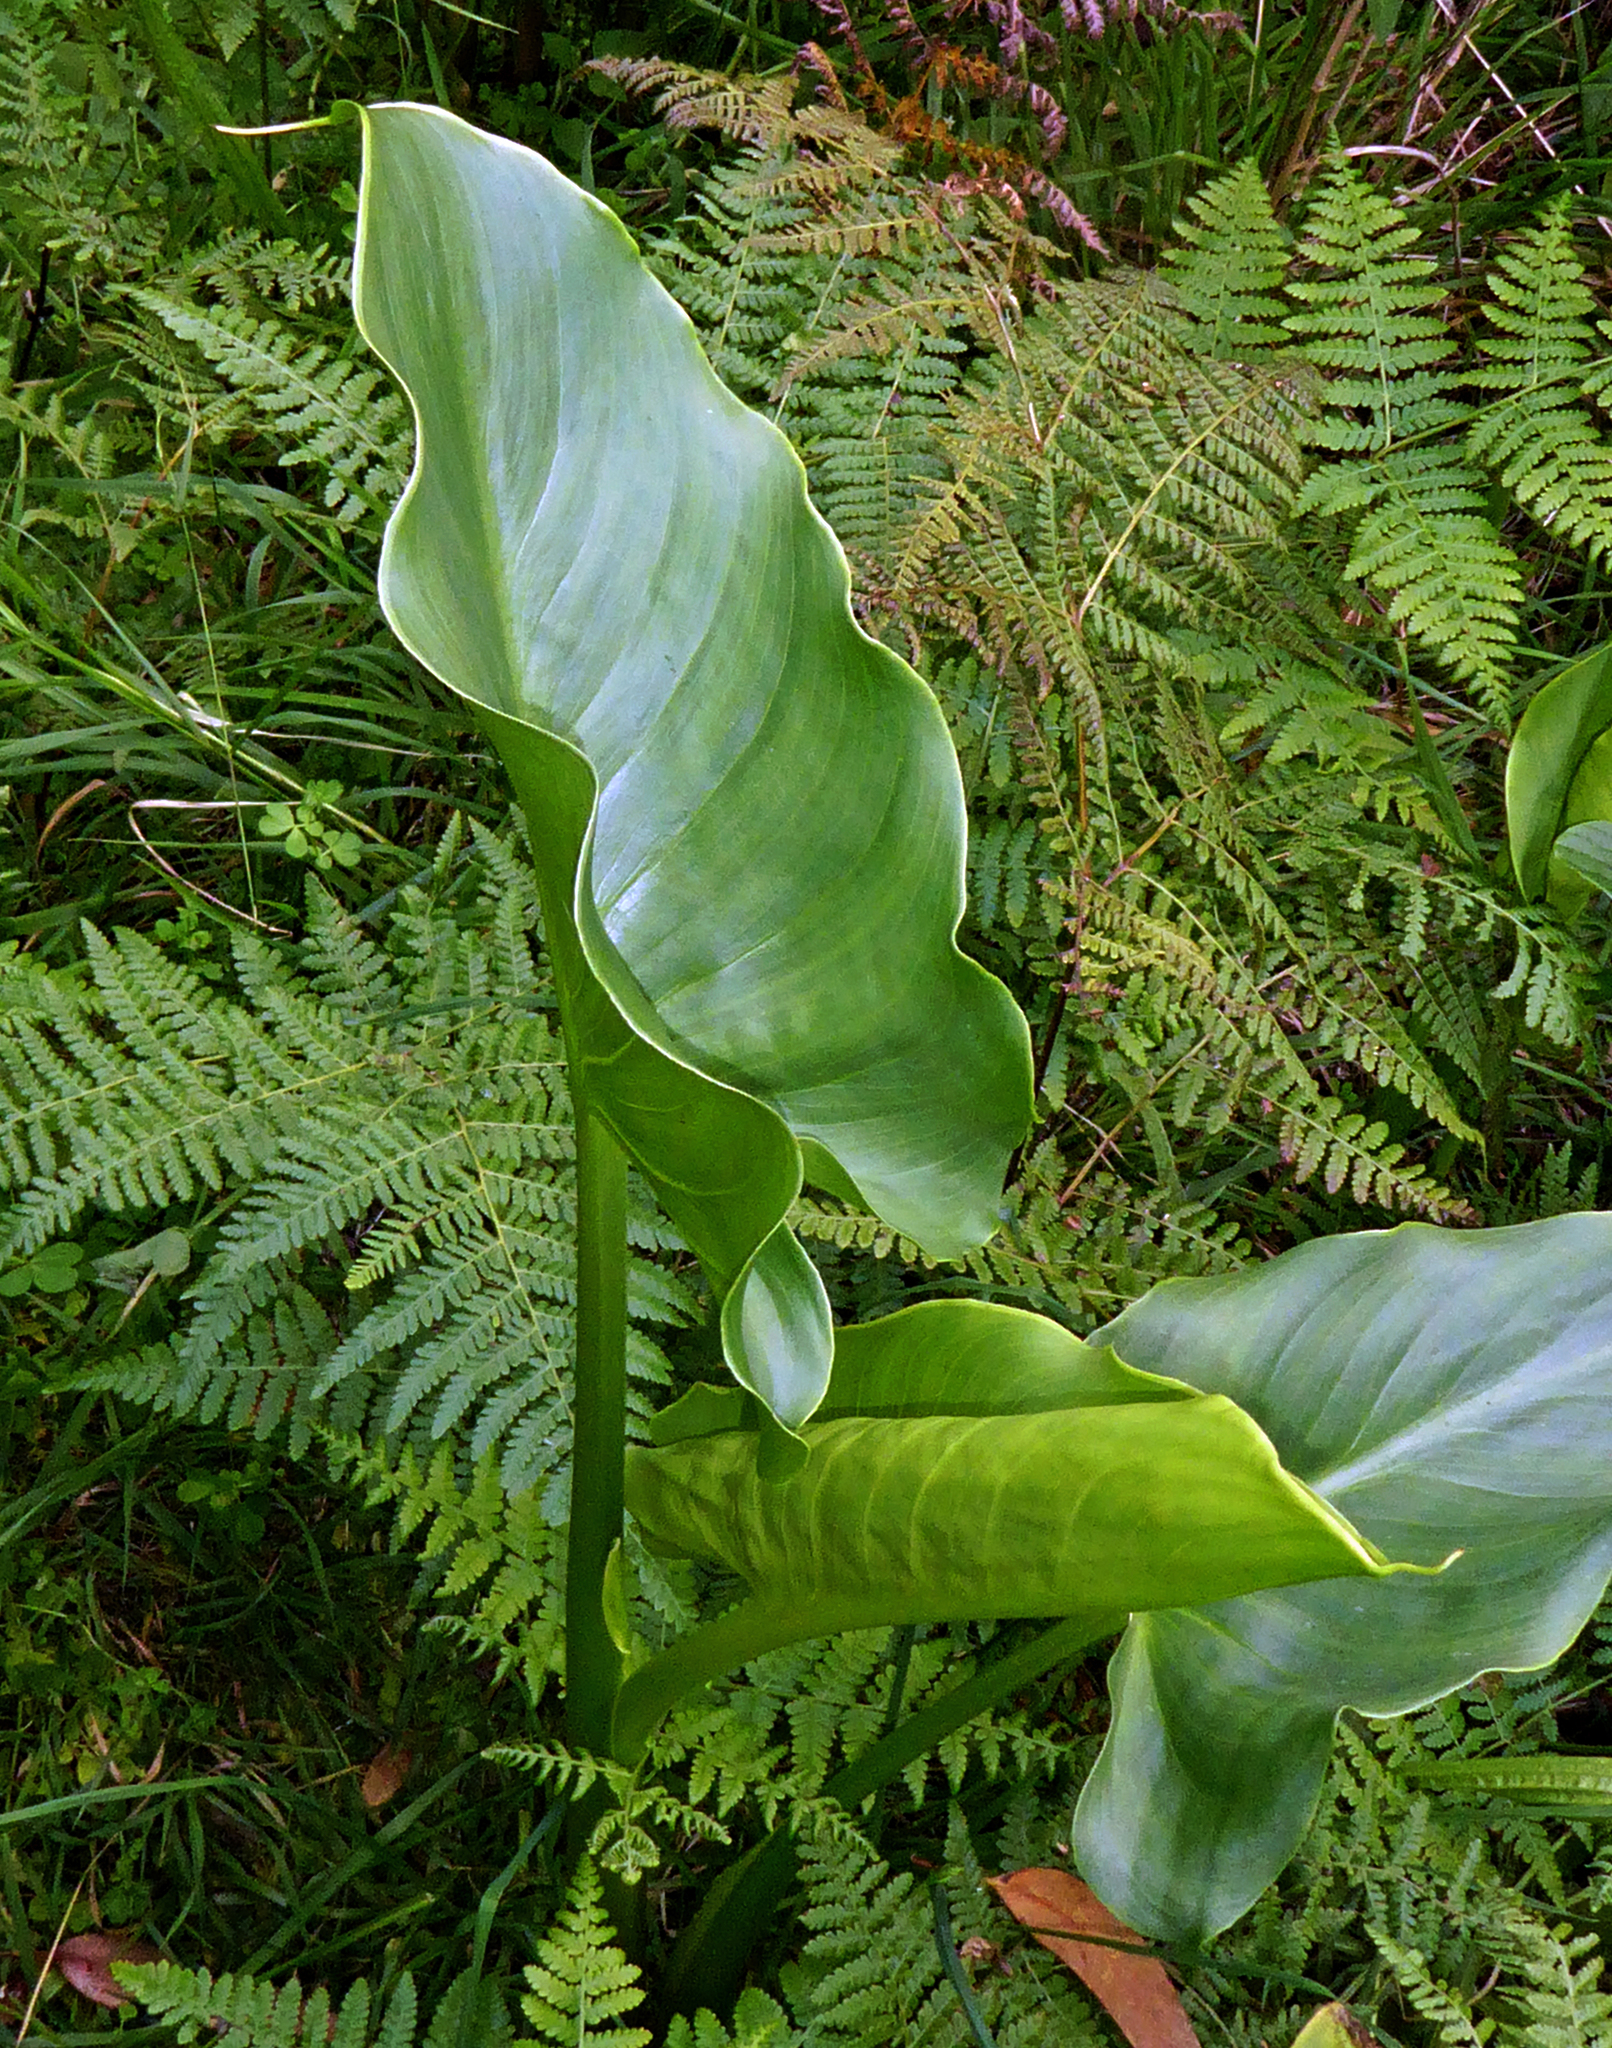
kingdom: Plantae
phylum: Tracheophyta
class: Liliopsida
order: Alismatales
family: Araceae
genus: Zantedeschia
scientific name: Zantedeschia aethiopica
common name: Altar-lily
